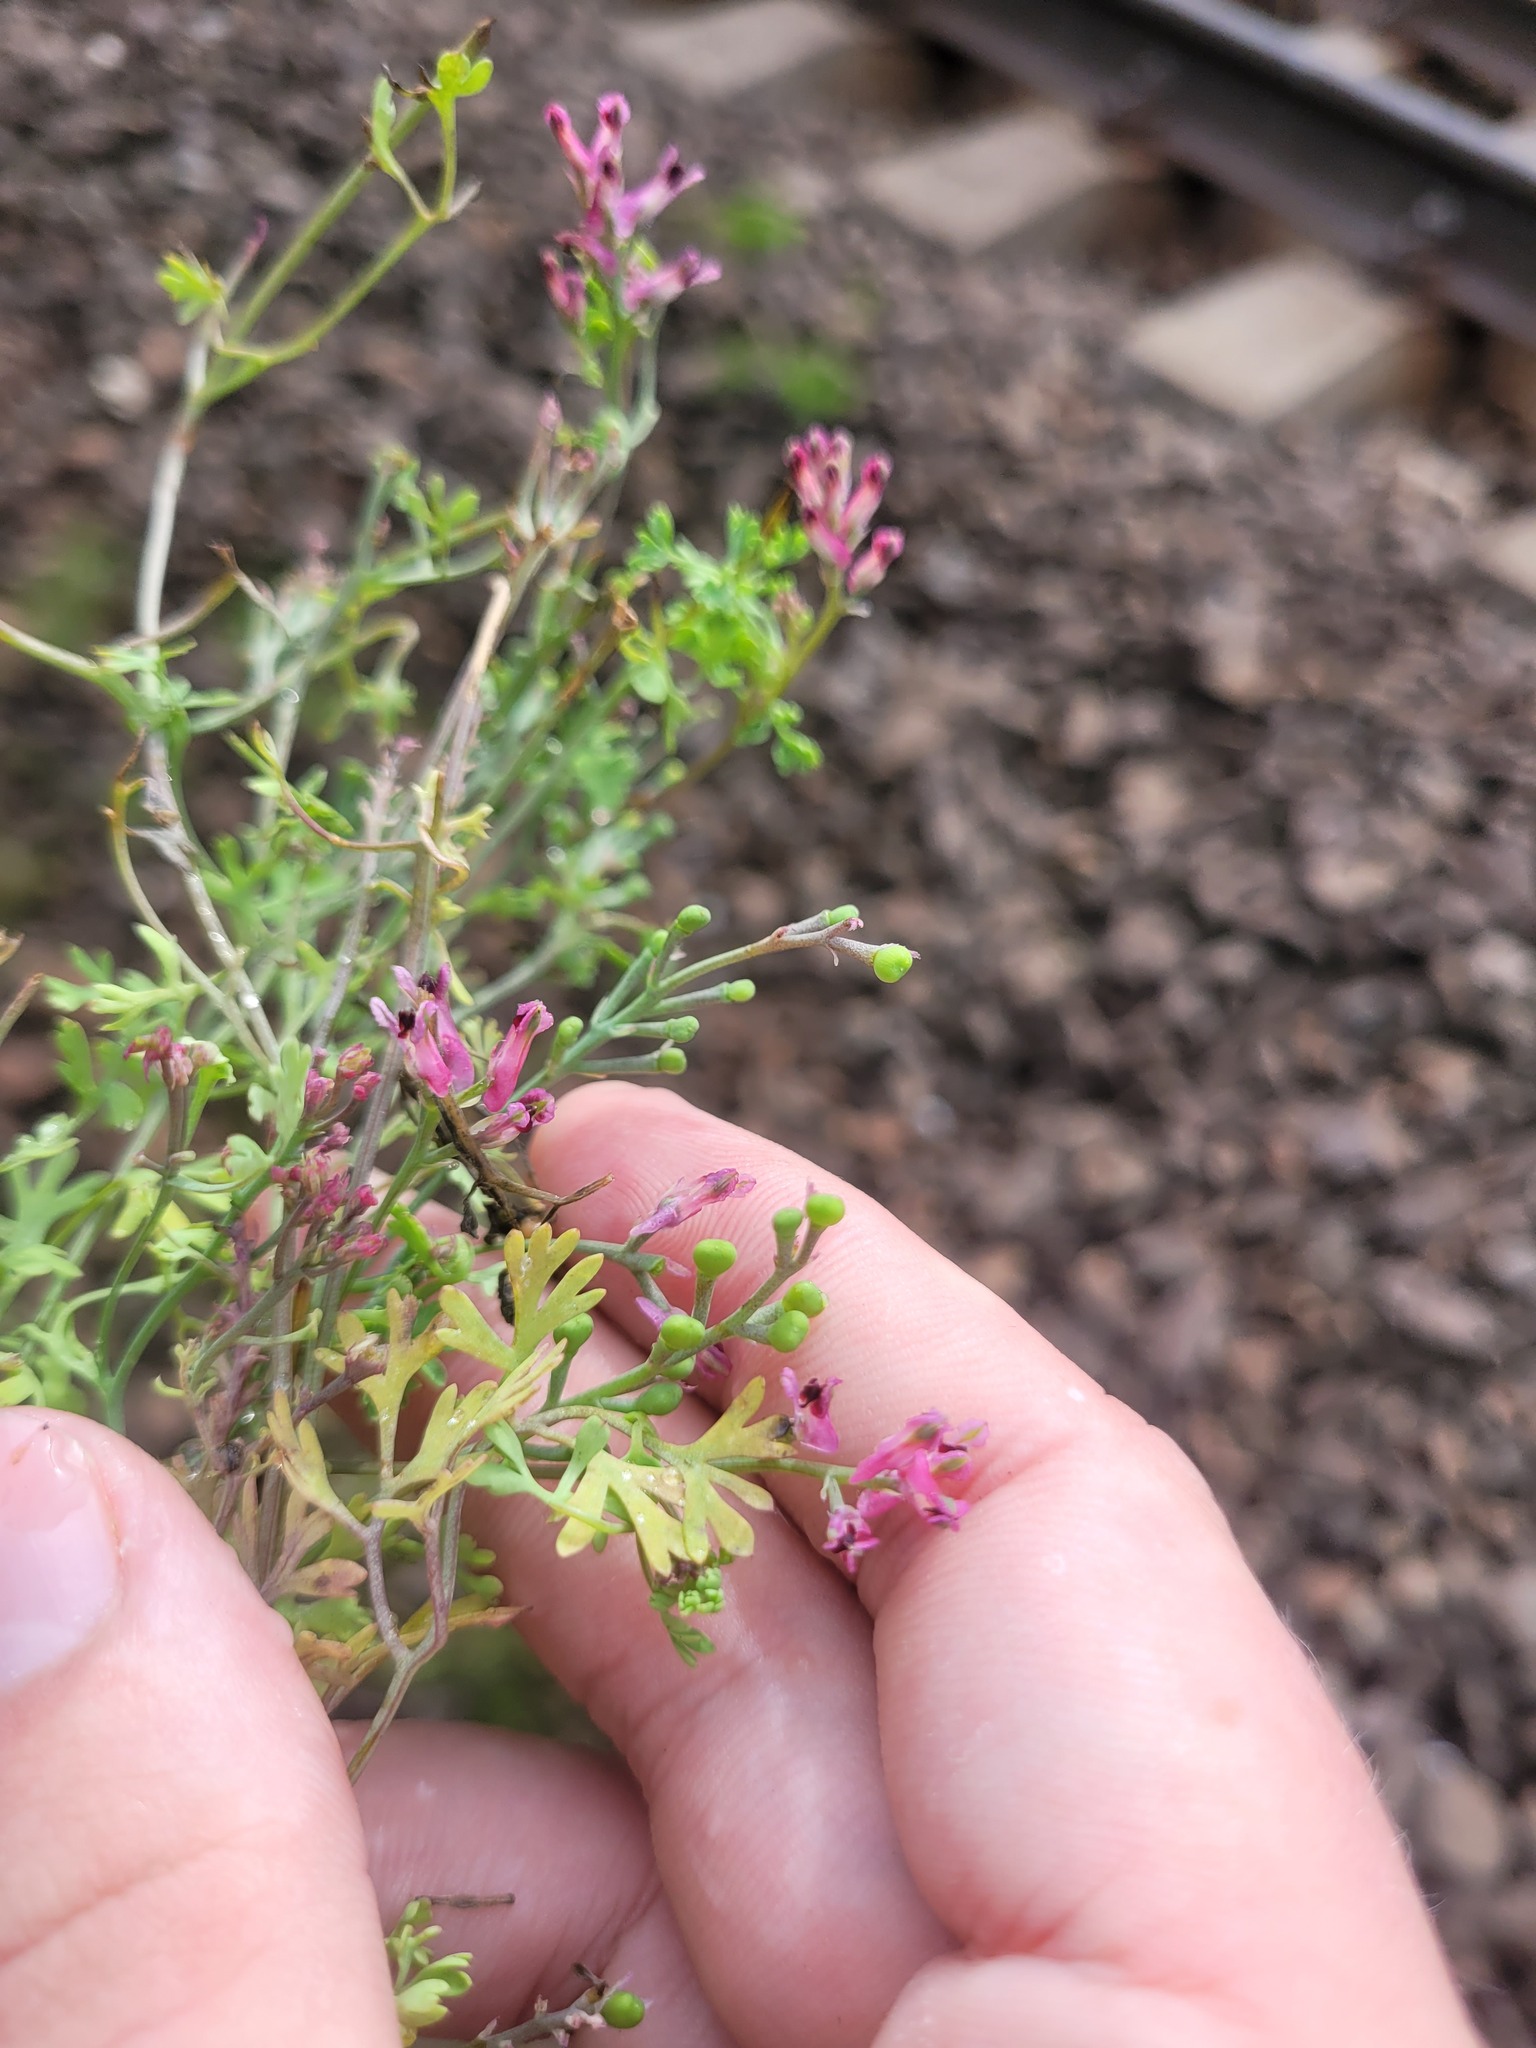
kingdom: Plantae
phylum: Tracheophyta
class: Magnoliopsida
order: Ranunculales
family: Papaveraceae
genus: Fumaria
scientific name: Fumaria officinalis
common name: Common fumitory
